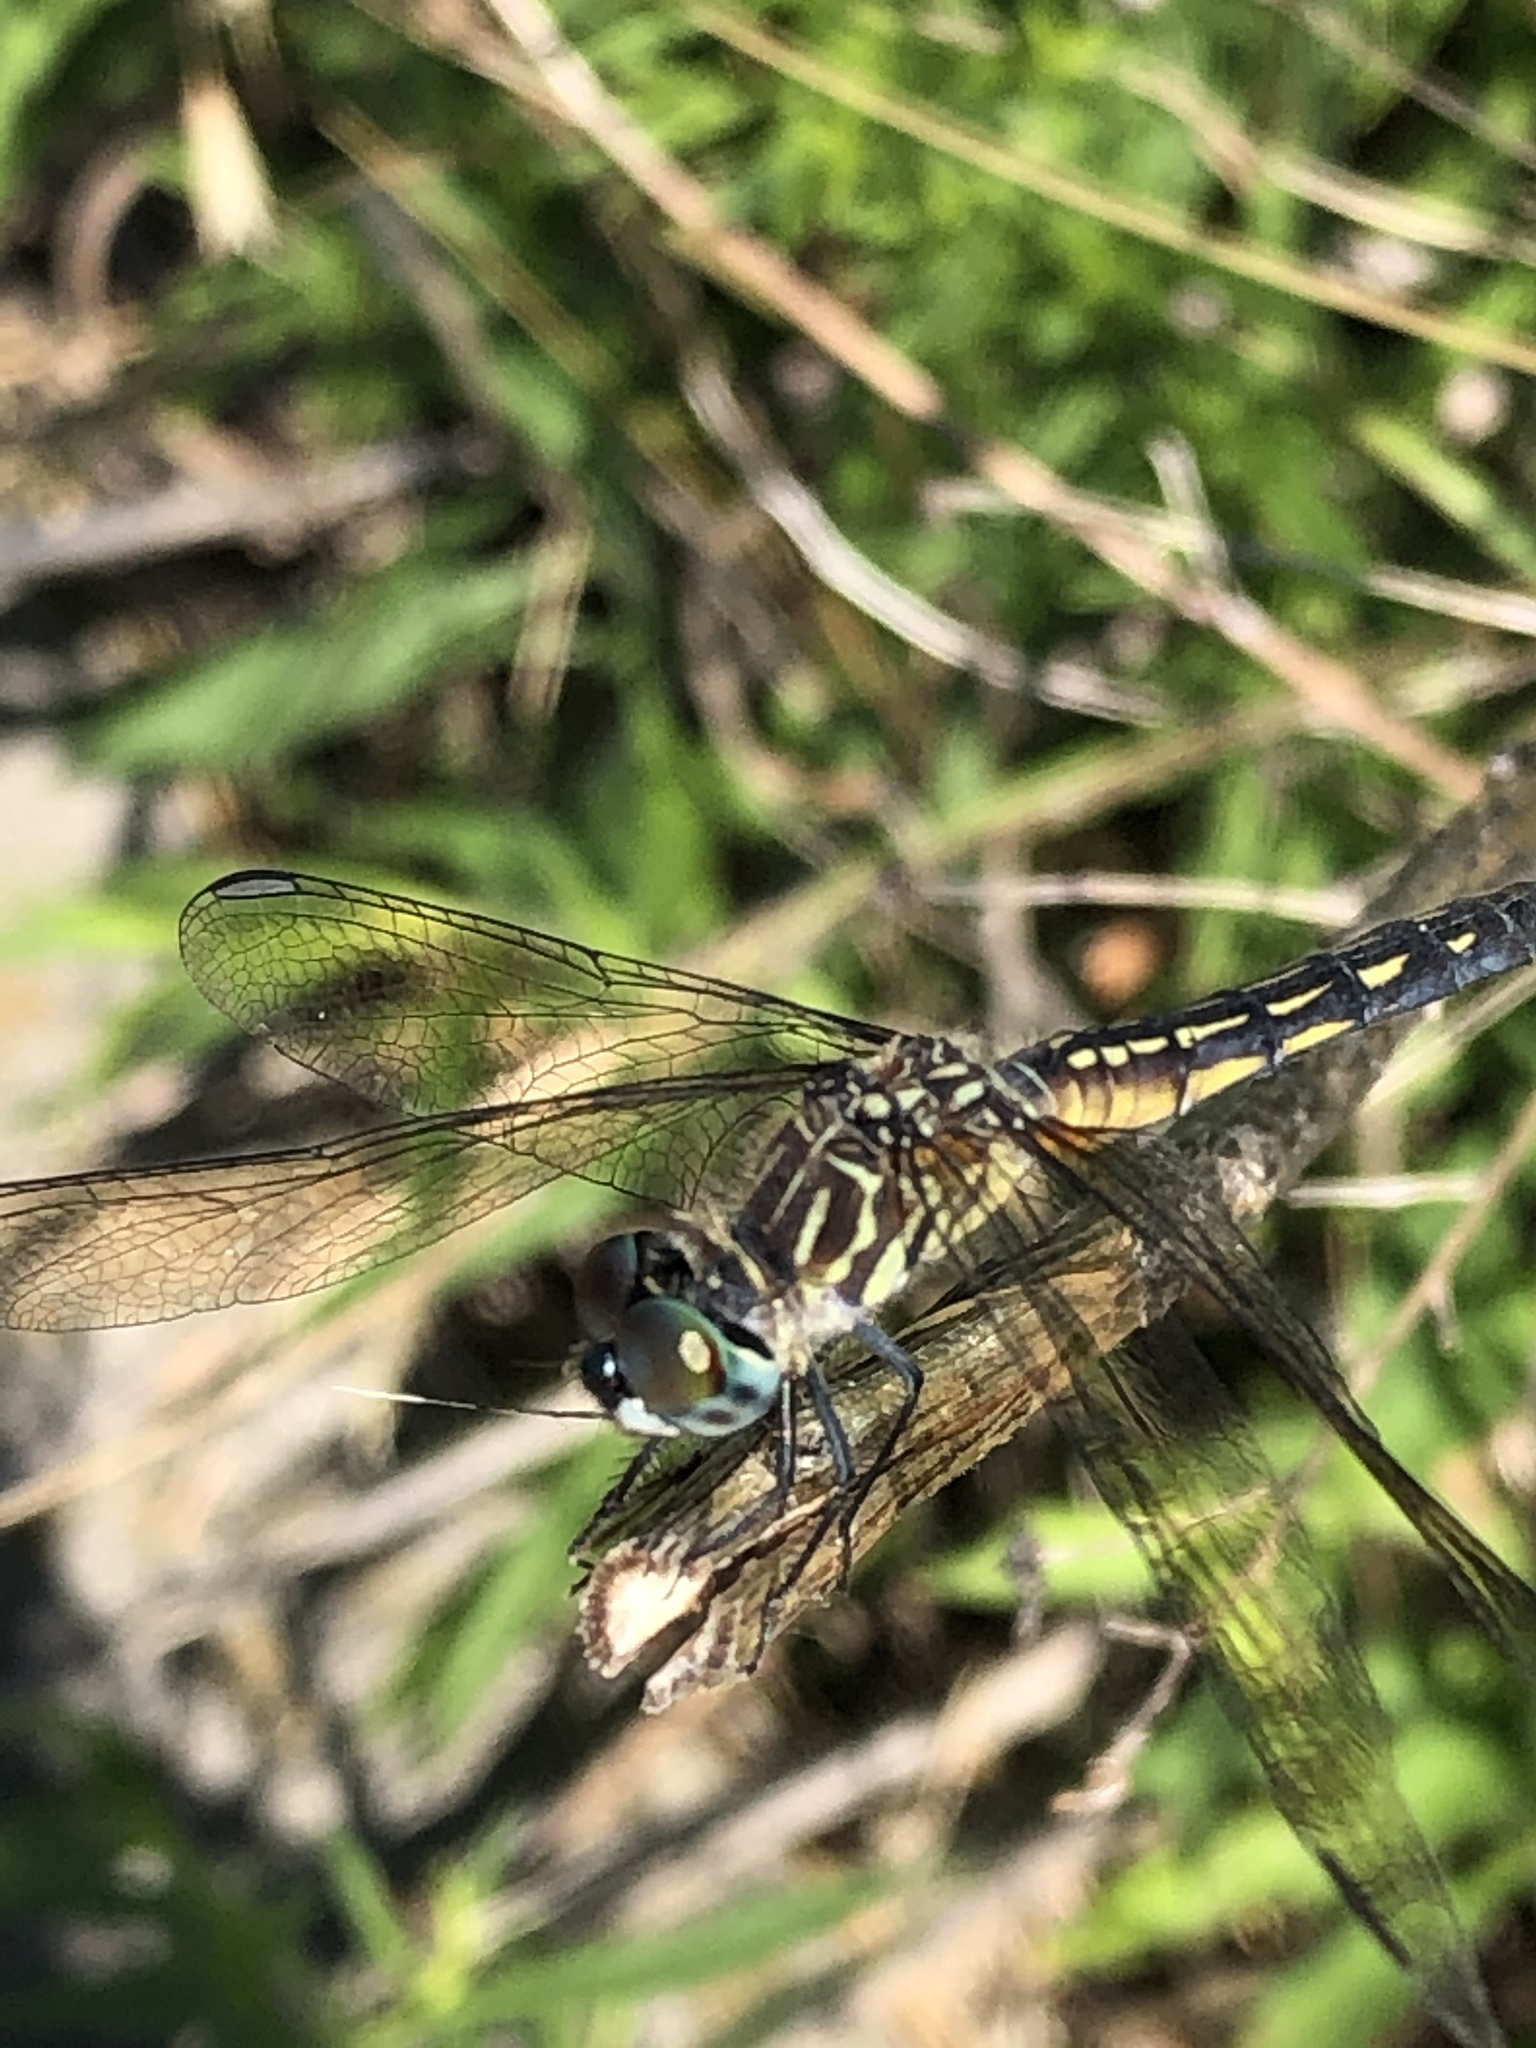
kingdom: Animalia
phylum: Arthropoda
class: Insecta
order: Odonata
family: Libellulidae
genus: Pachydiplax
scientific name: Pachydiplax longipennis
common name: Blue dasher
